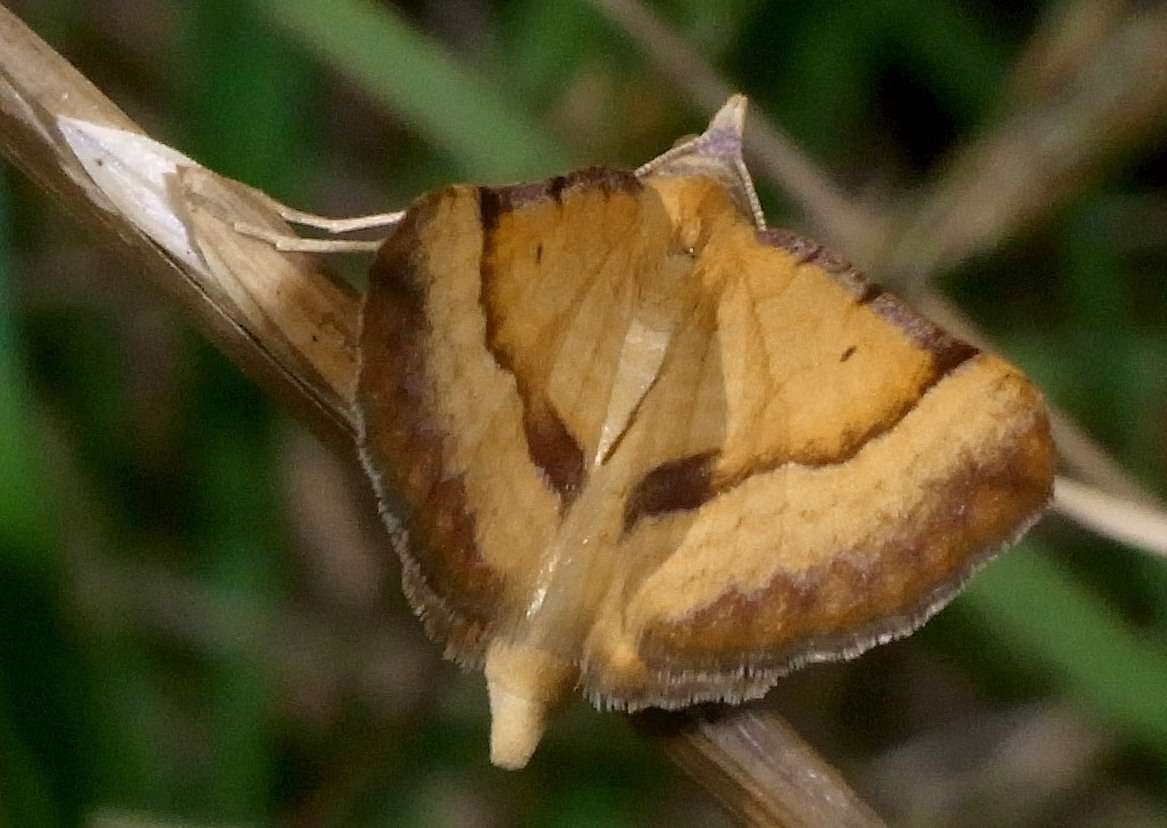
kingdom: Animalia
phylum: Arthropoda
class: Insecta
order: Lepidoptera
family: Geometridae
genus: Anachloris
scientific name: Anachloris subochraria
